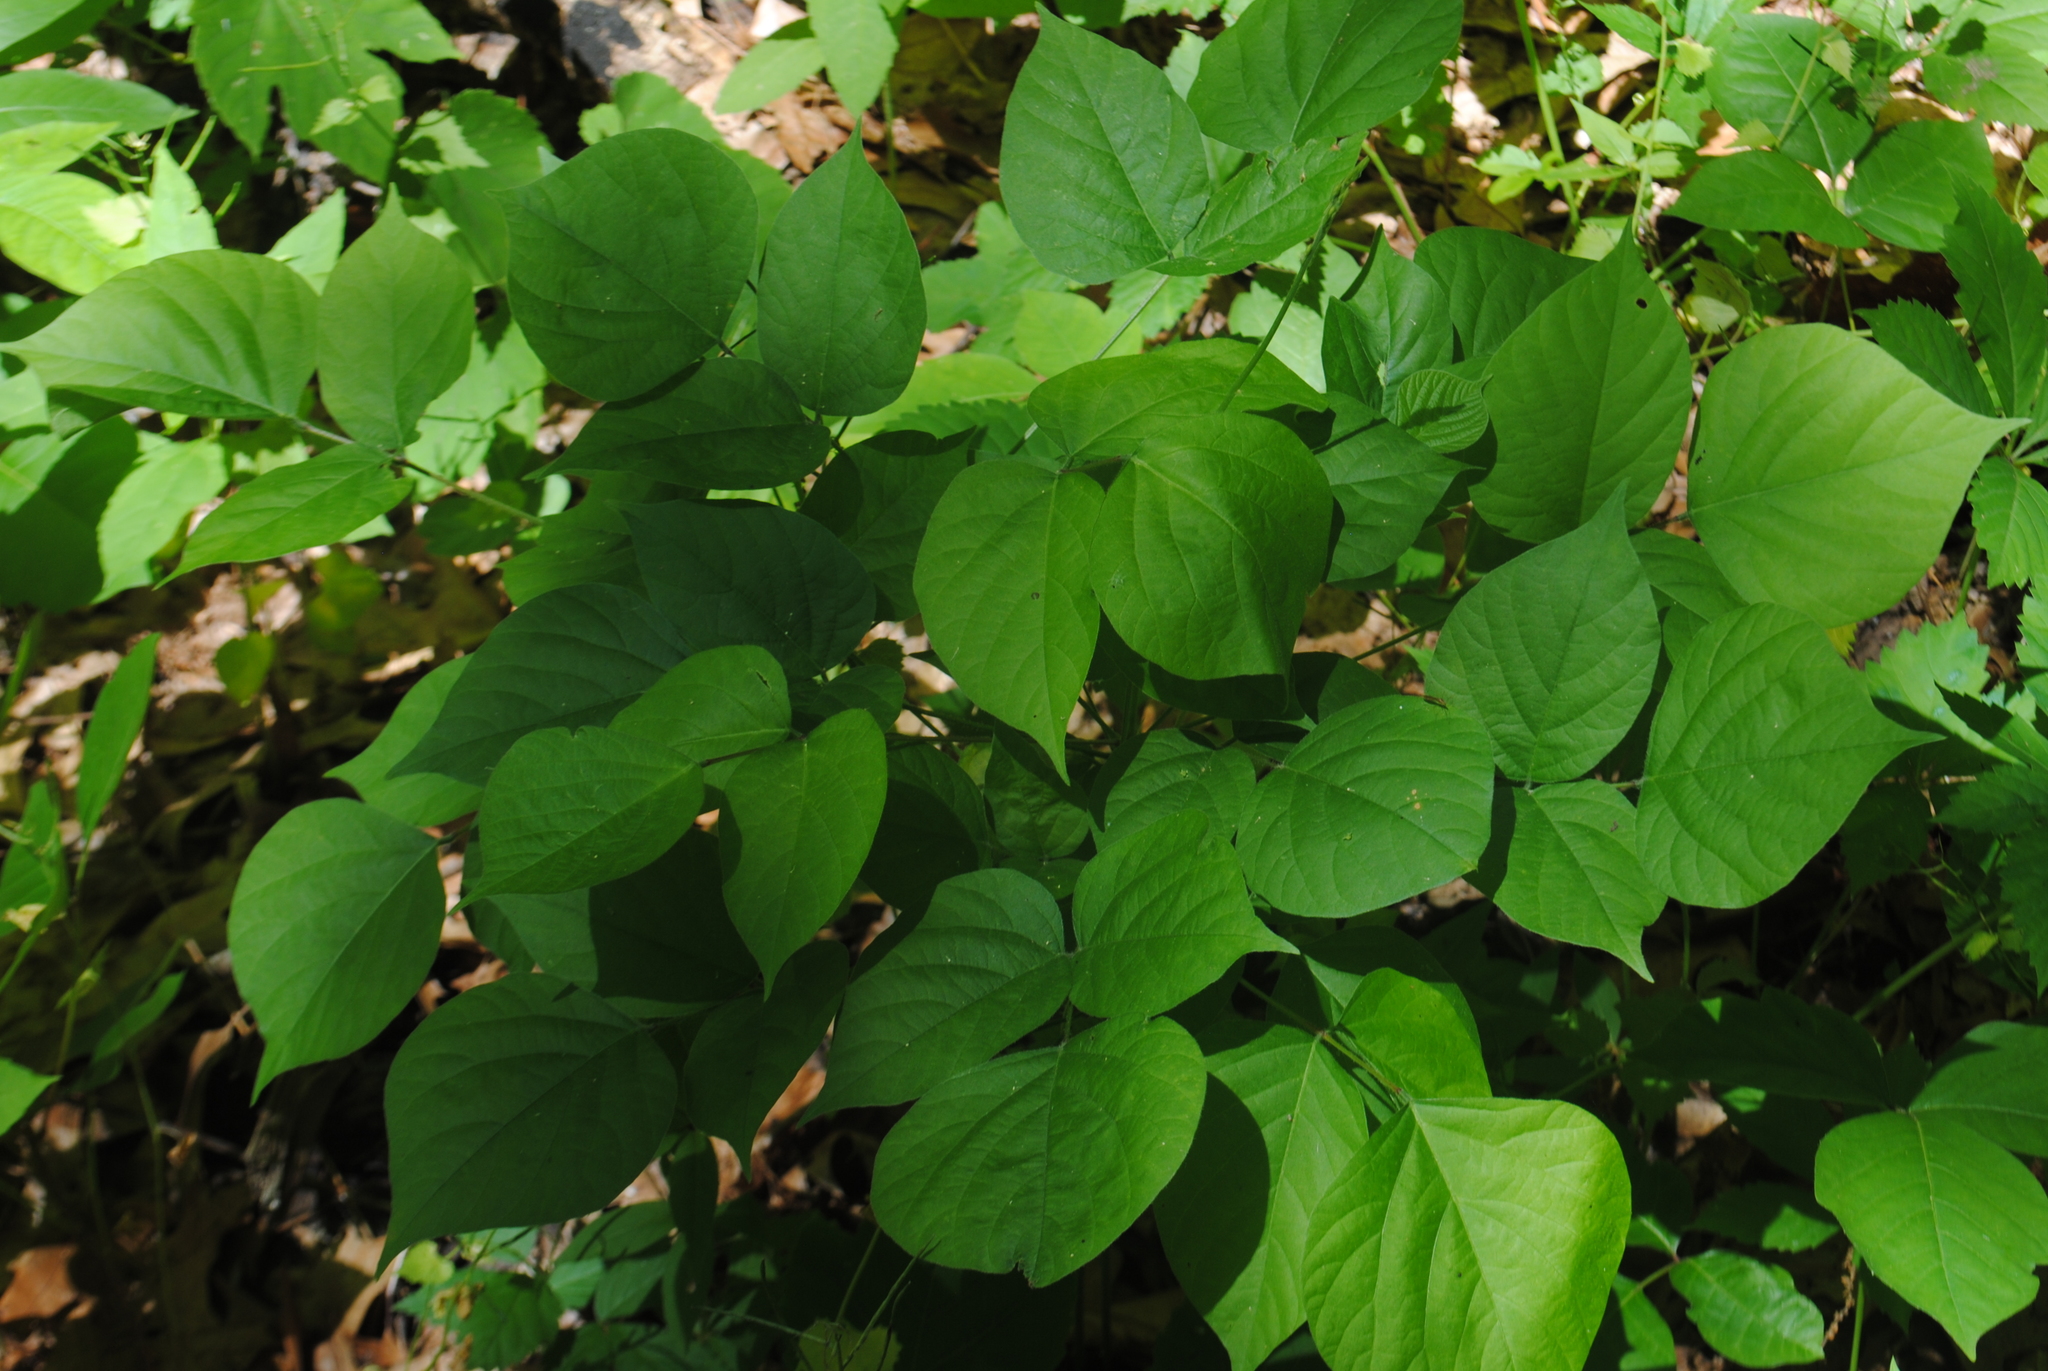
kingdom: Plantae
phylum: Tracheophyta
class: Magnoliopsida
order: Fabales
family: Fabaceae
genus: Hylodesmum
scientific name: Hylodesmum glutinosum
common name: Clustered-leaved tick-trefoil
